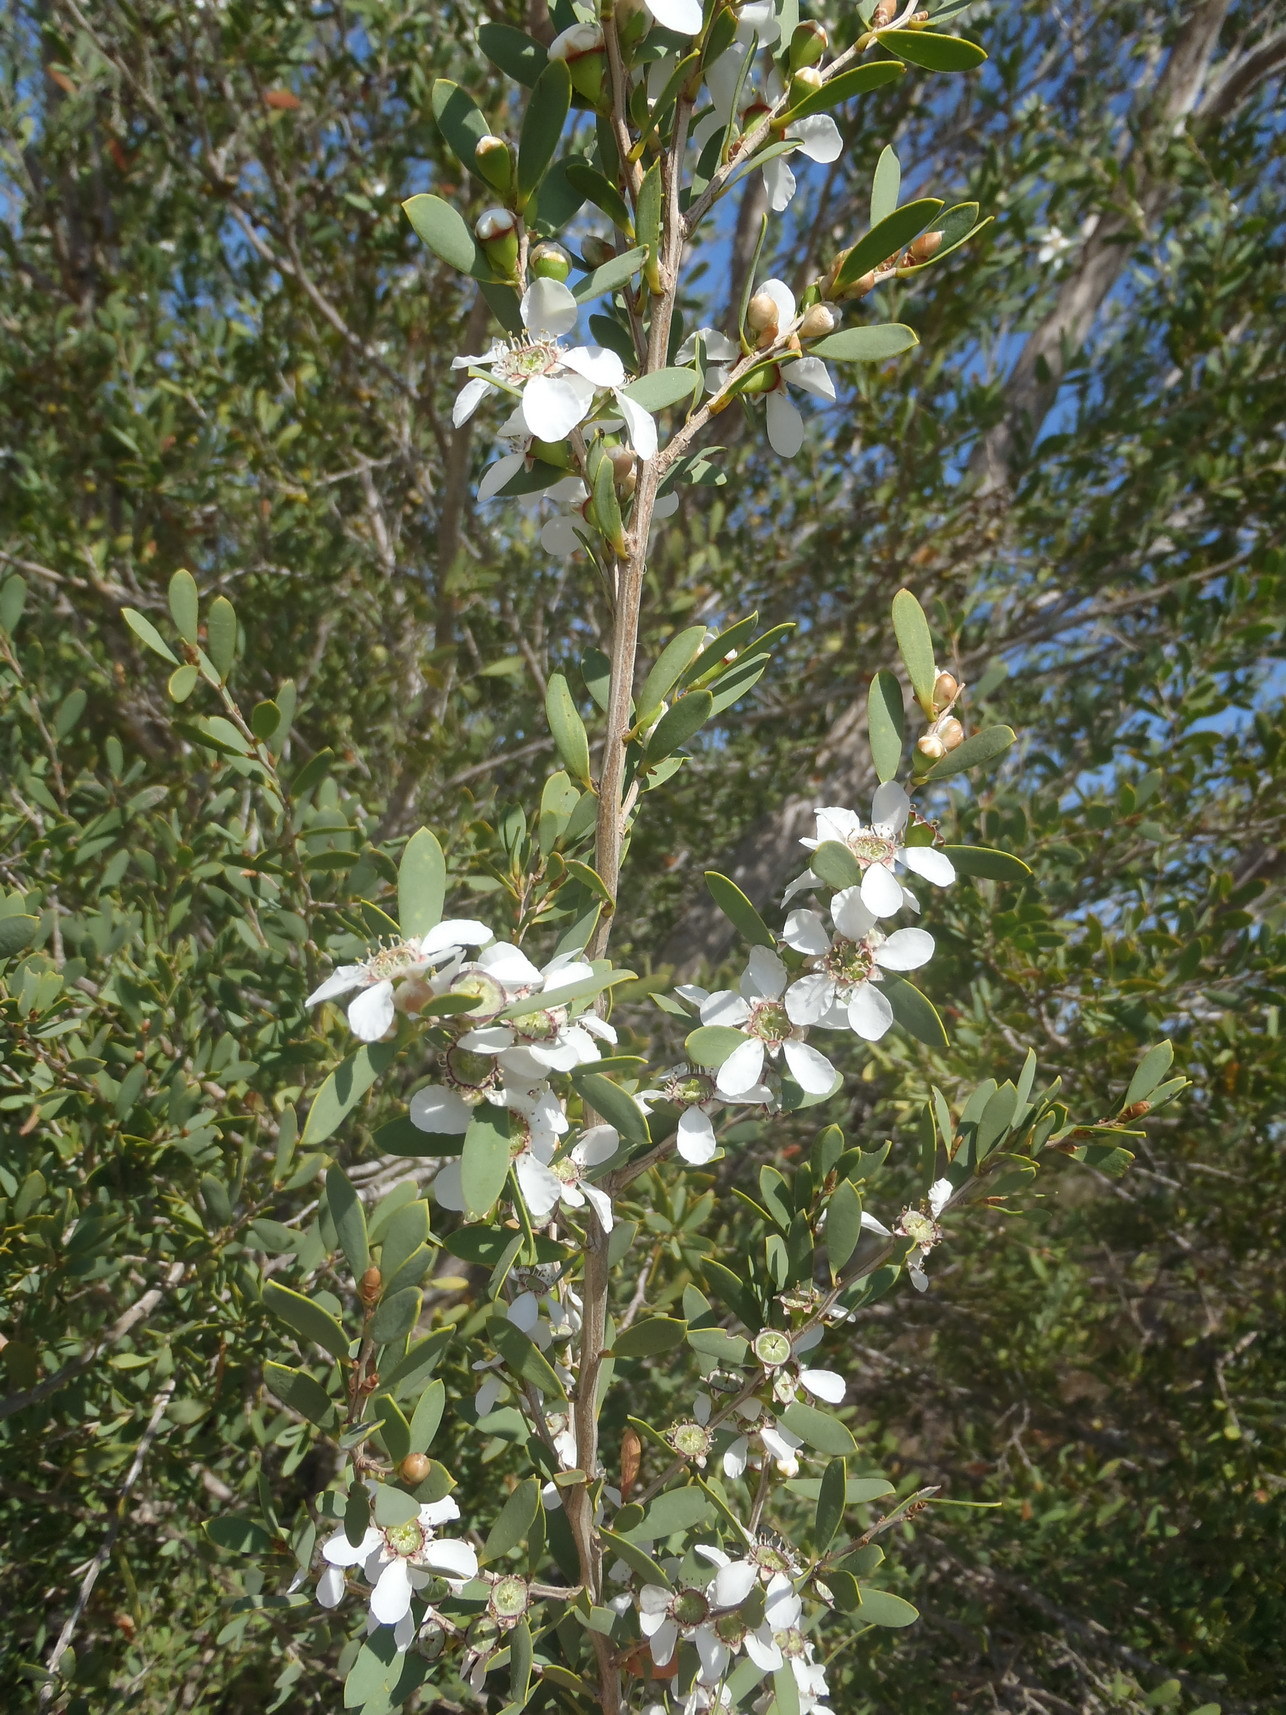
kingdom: Plantae
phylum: Tracheophyta
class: Magnoliopsida
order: Myrtales
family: Myrtaceae
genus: Leptospermum
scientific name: Leptospermum laevigatum
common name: Australian teatree
